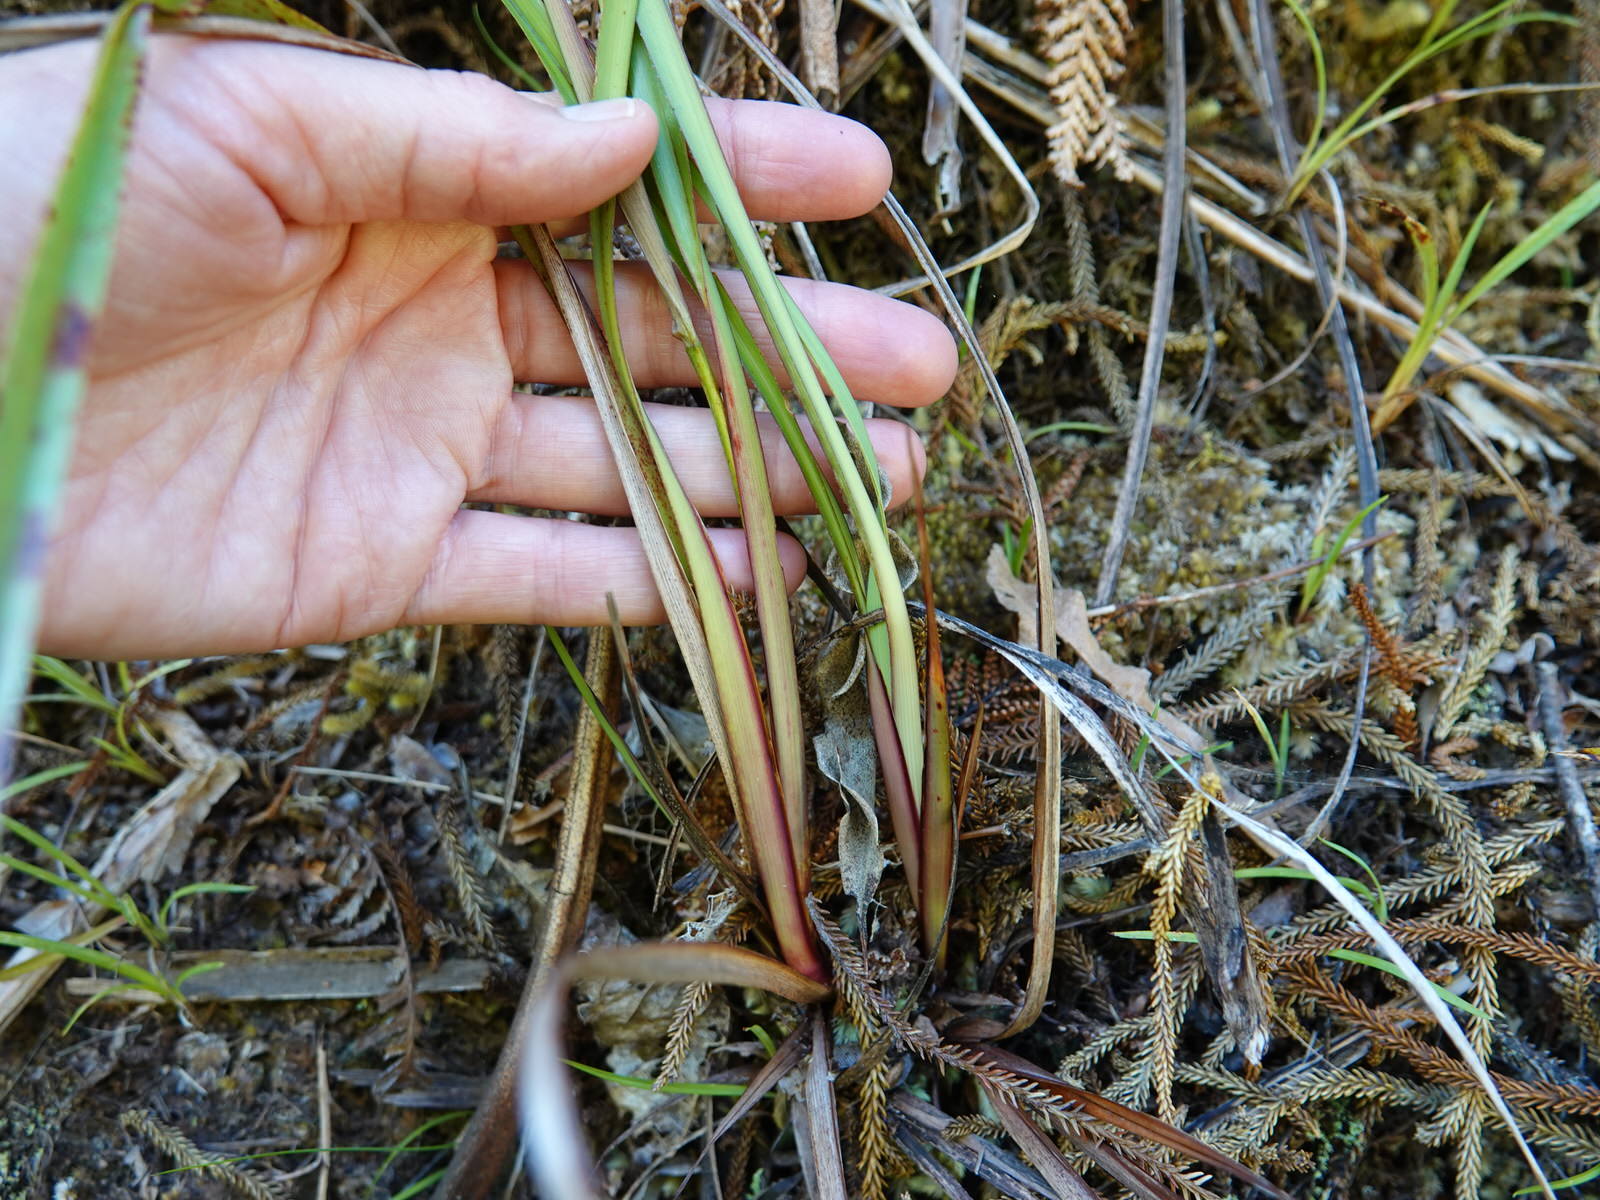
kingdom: Plantae
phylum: Tracheophyta
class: Liliopsida
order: Asparagales
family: Asphodelaceae
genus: Dianella
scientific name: Dianella nigra
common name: New zealand-blueberry
